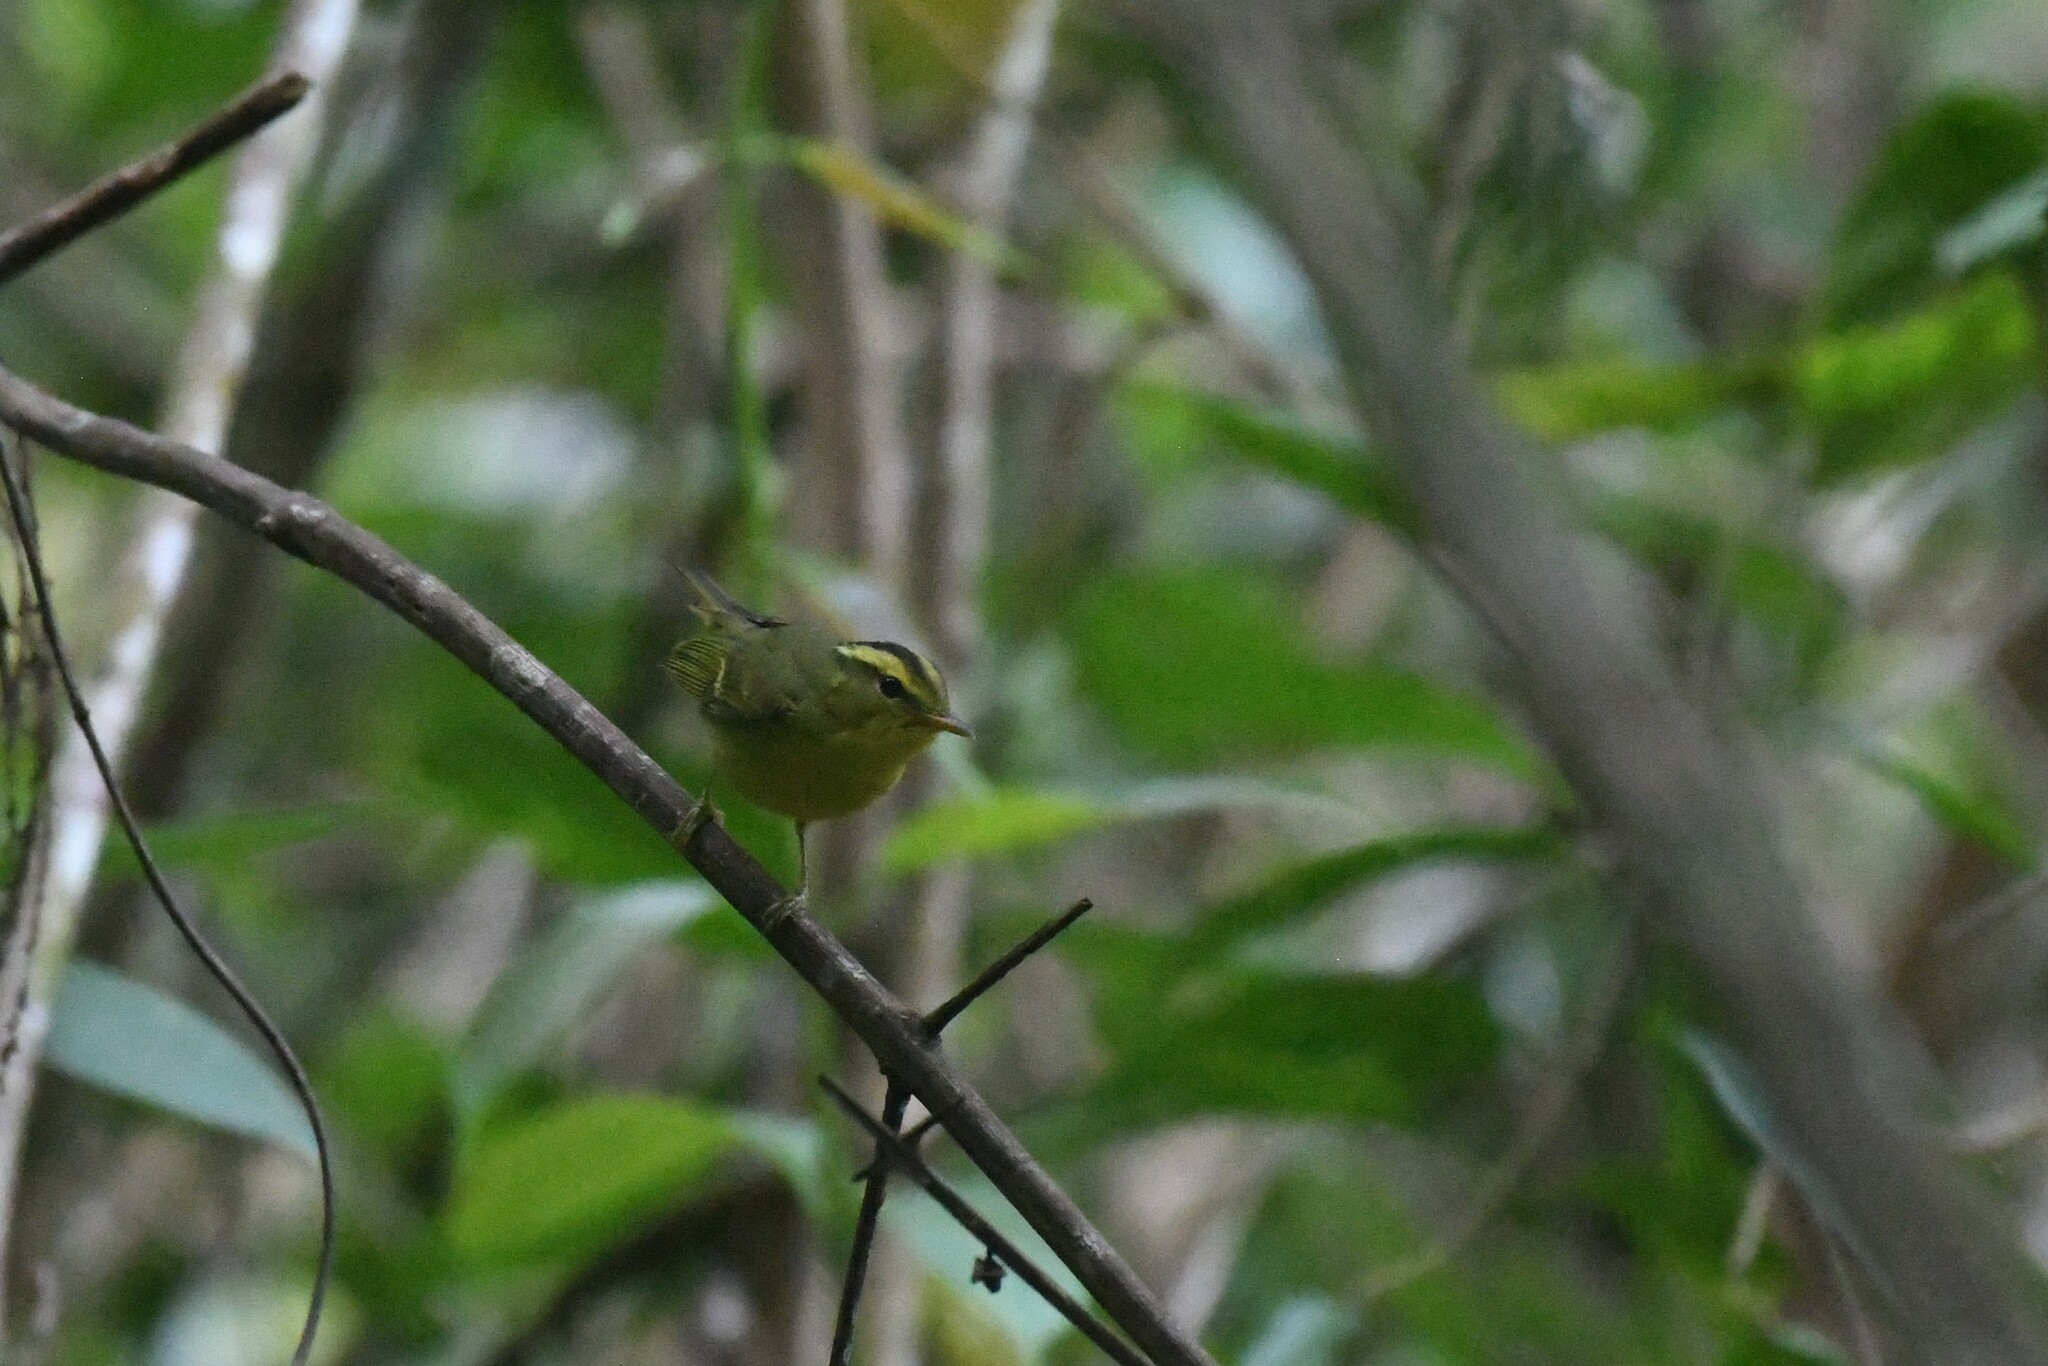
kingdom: Animalia
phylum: Chordata
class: Aves
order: Passeriformes
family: Phylloscopidae
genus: Phylloscopus
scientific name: Phylloscopus ricketti
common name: Sulphur-breasted warbler
